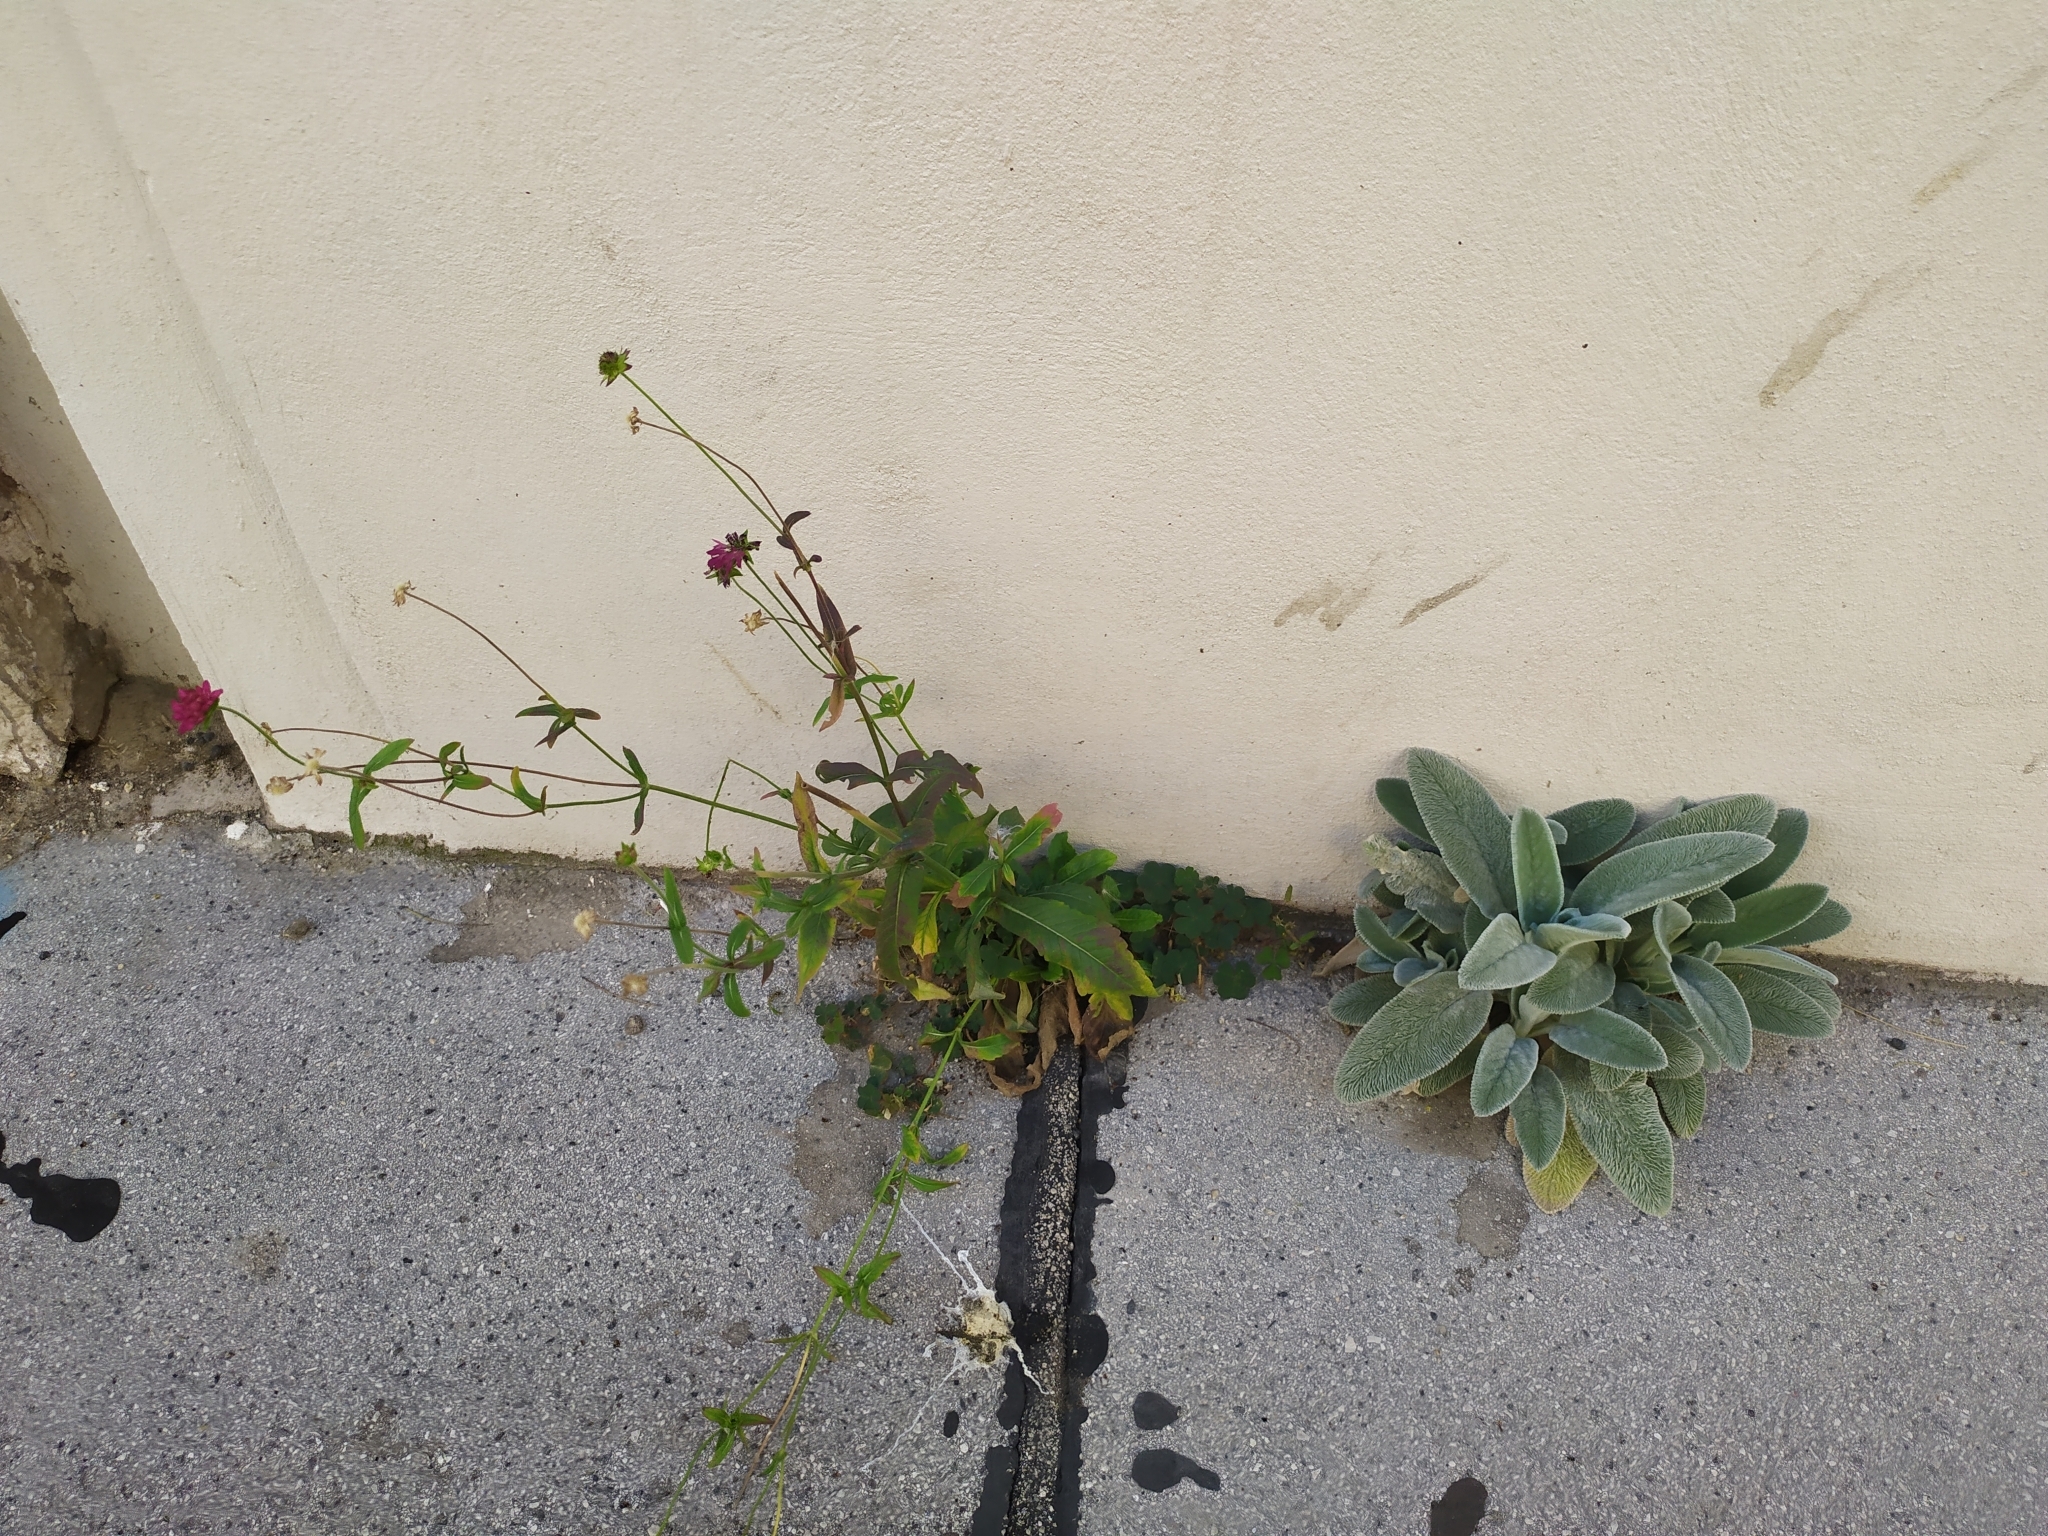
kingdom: Plantae
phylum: Tracheophyta
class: Magnoliopsida
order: Lamiales
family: Lamiaceae
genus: Stachys
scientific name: Stachys byzantina
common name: Lamb's-ear
